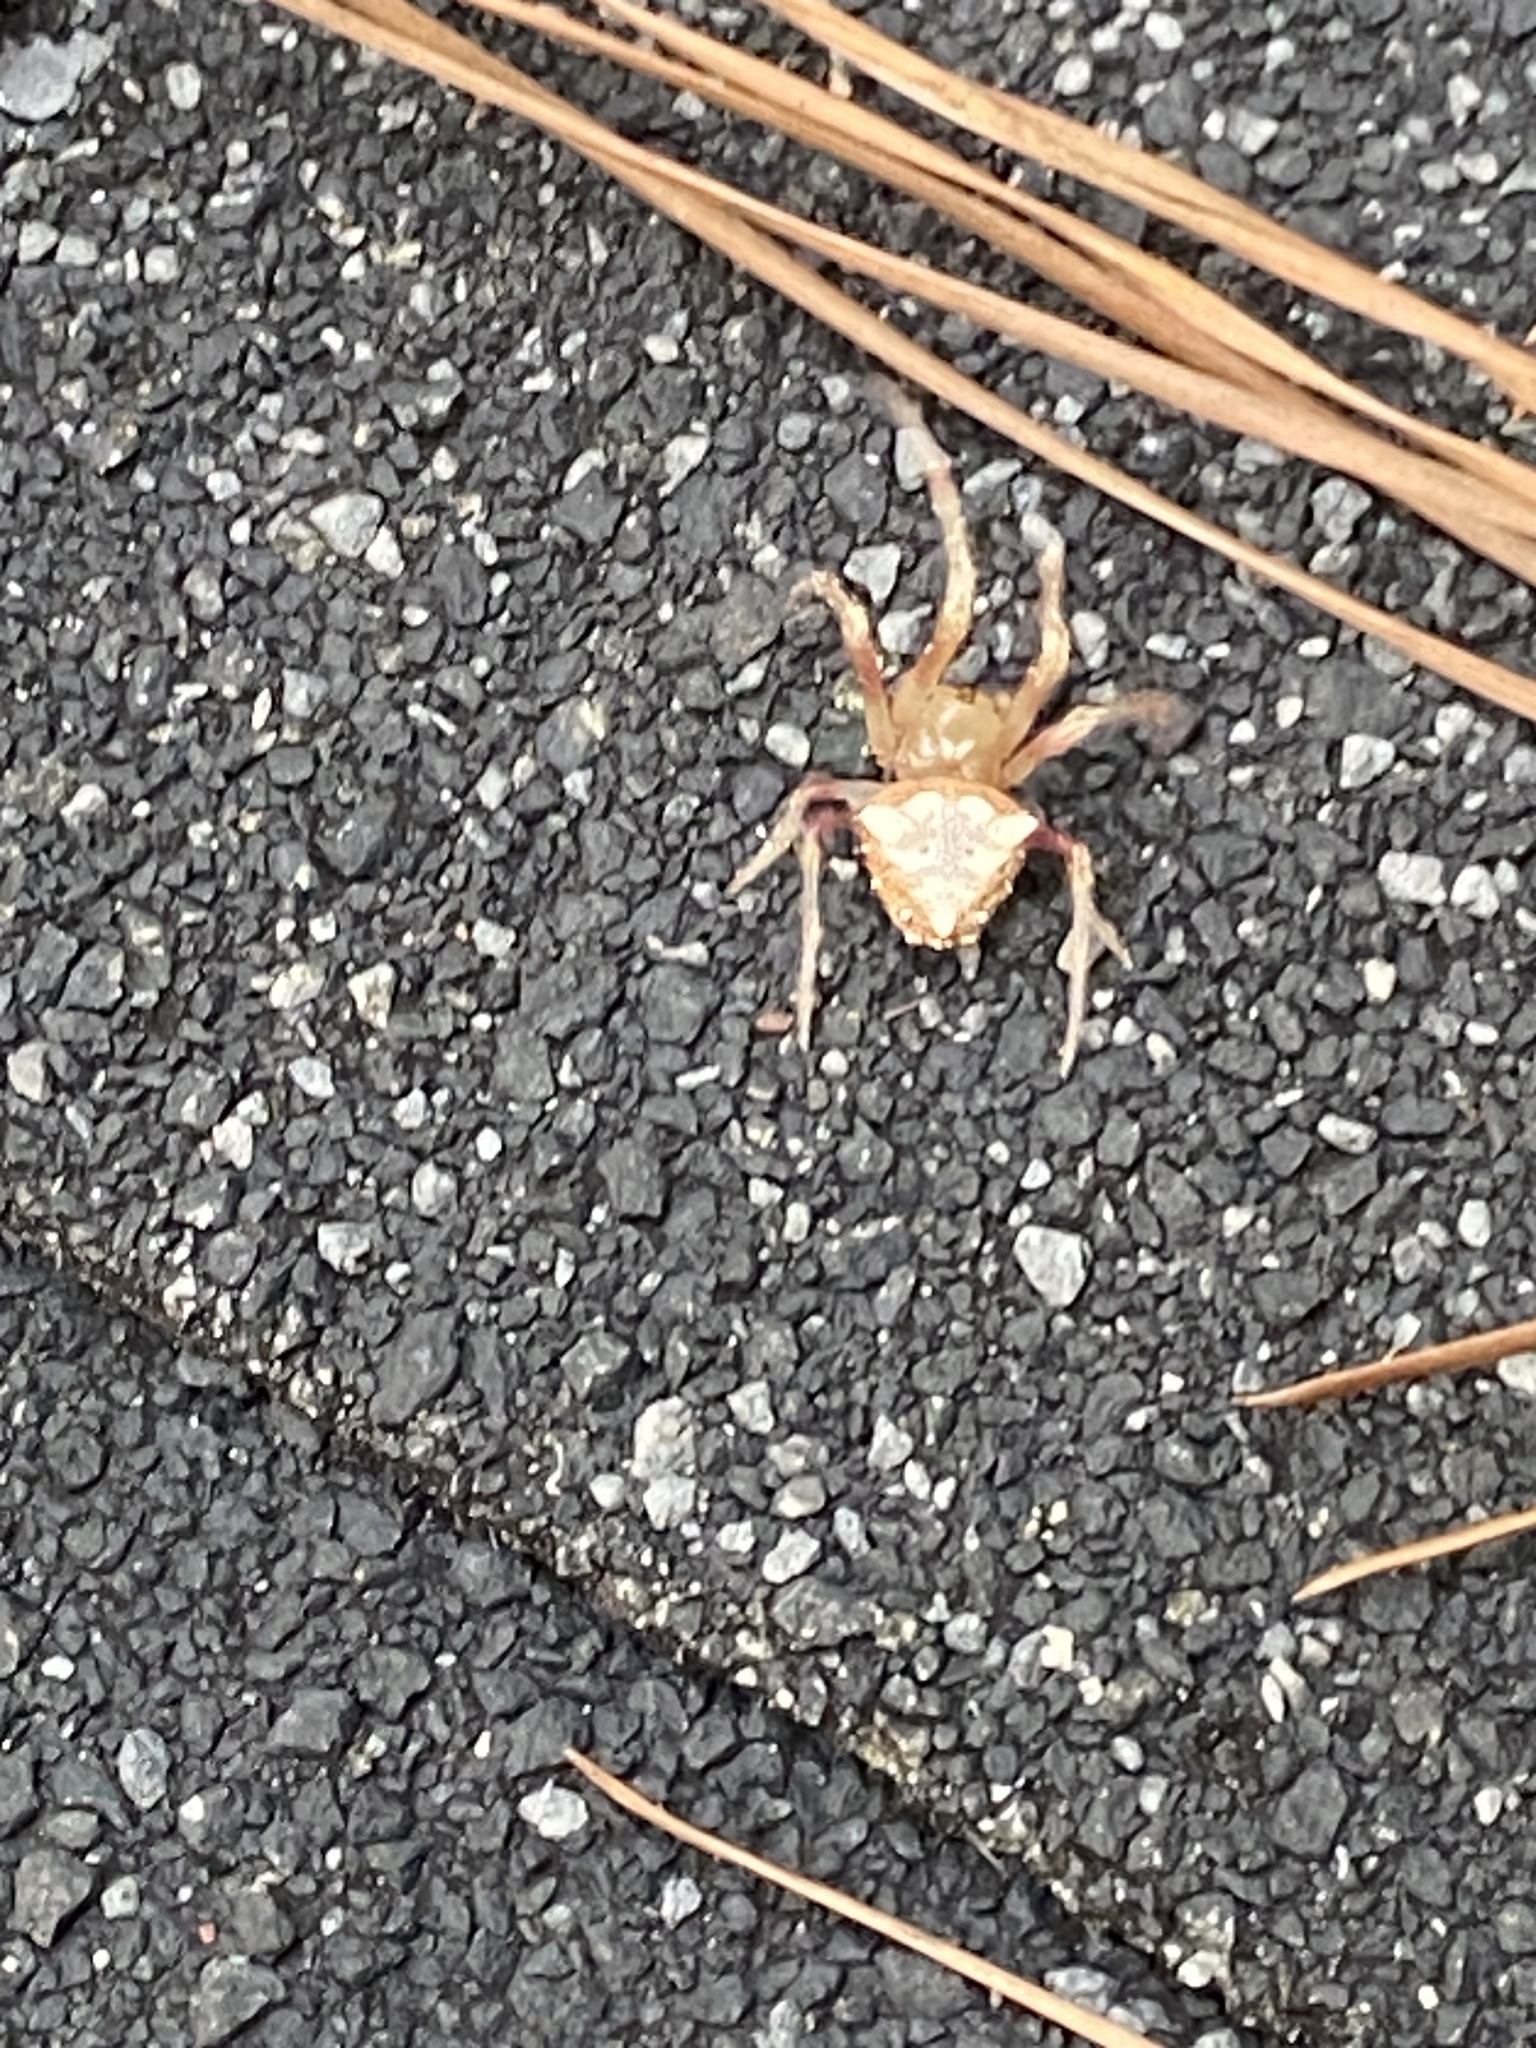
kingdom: Animalia
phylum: Arthropoda
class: Arachnida
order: Araneae
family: Araneidae
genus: Verrucosa
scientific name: Verrucosa arenata
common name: Orb weavers
